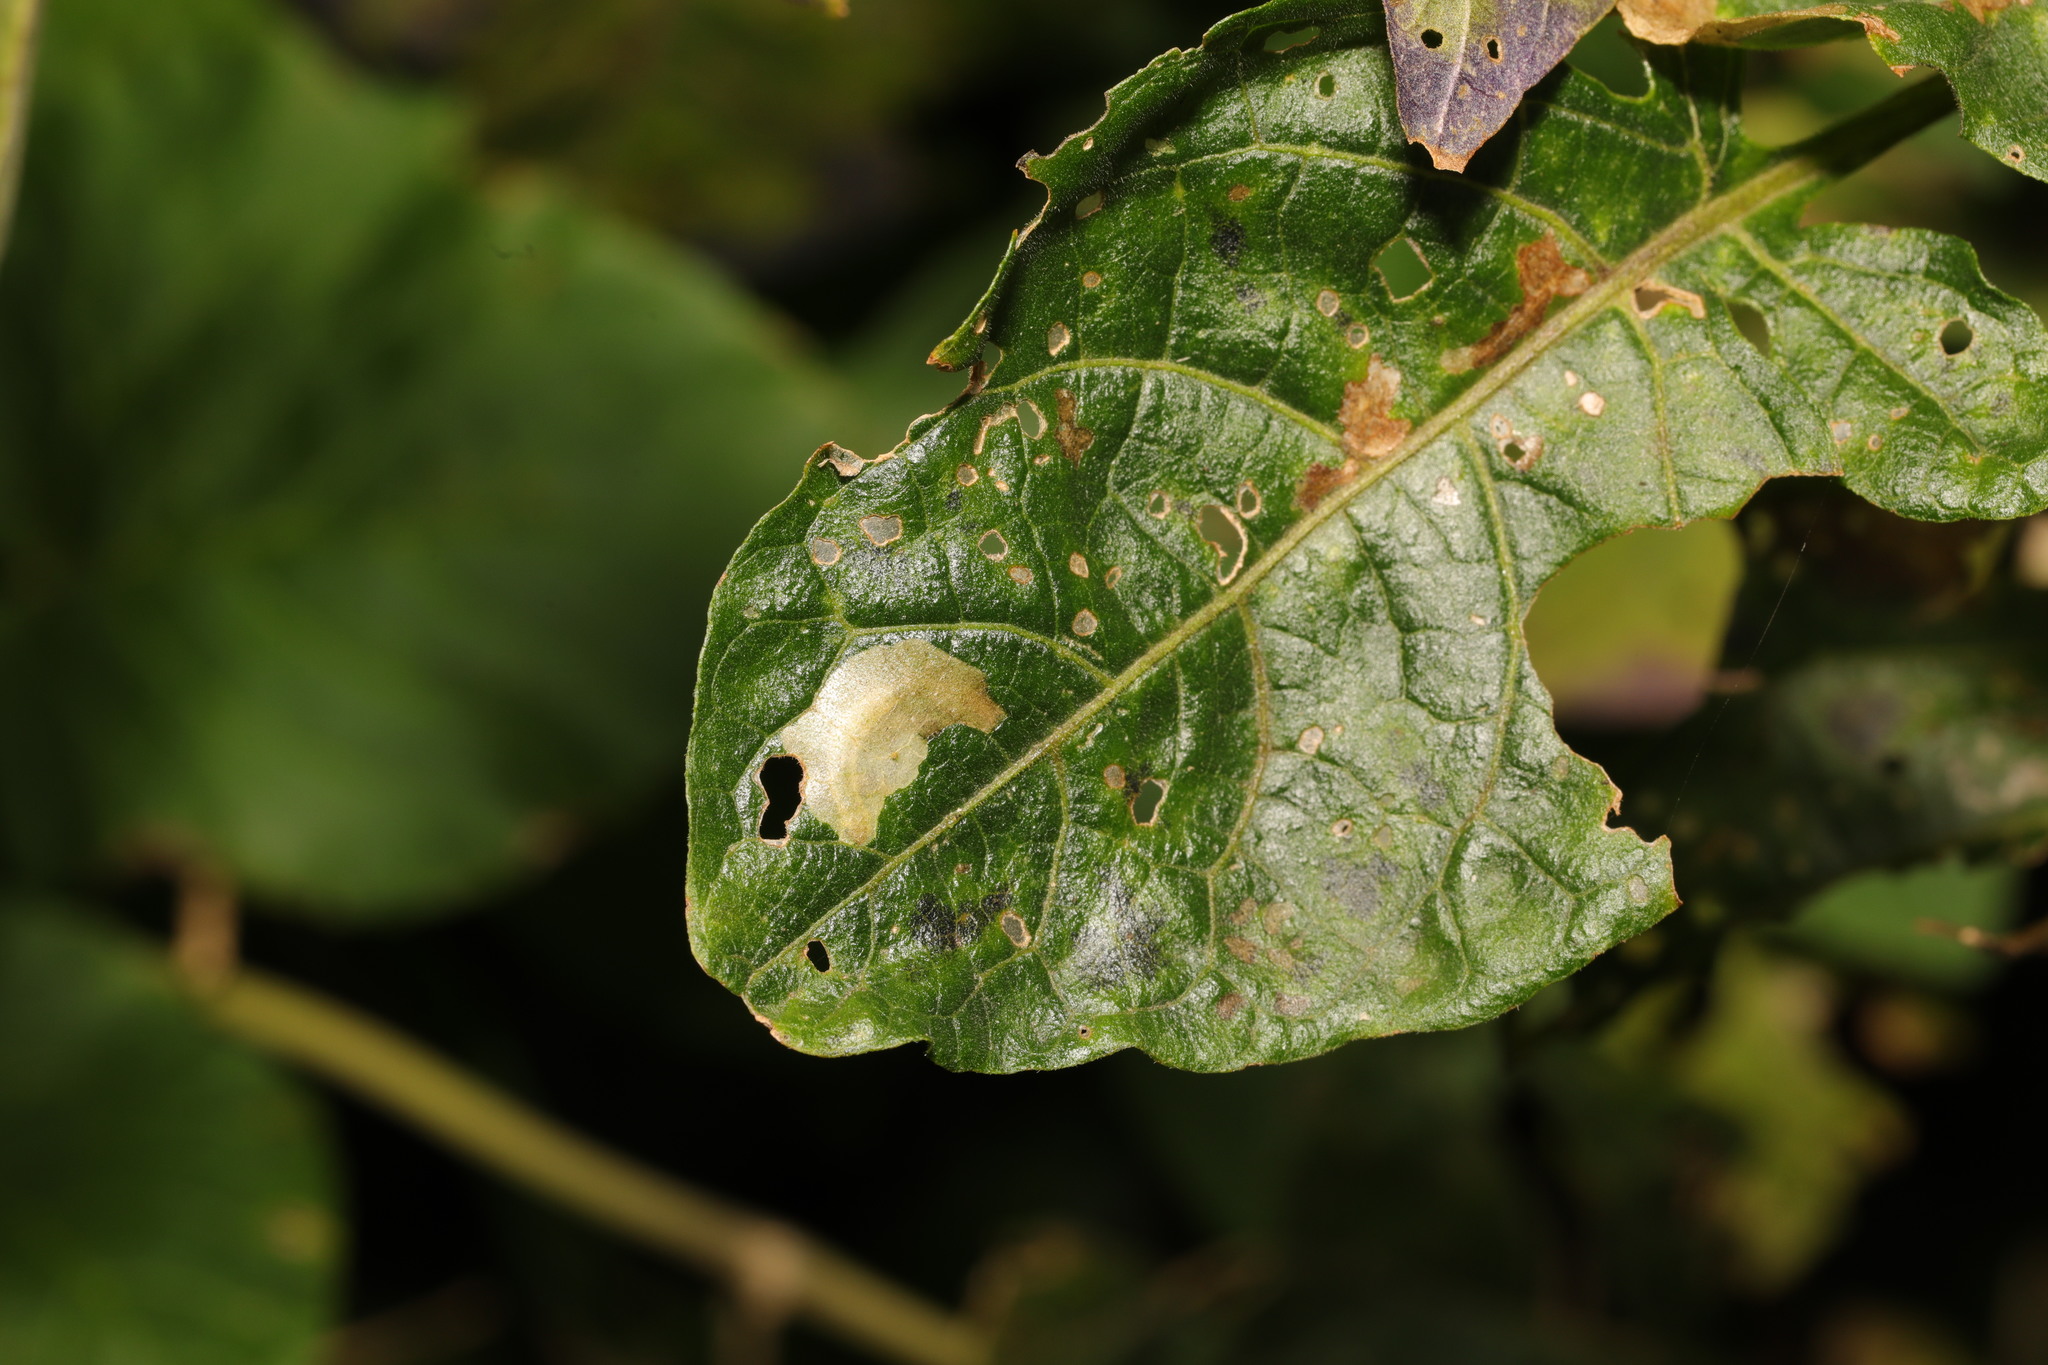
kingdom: Animalia
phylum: Arthropoda
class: Insecta
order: Lepidoptera
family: Glyphipterigidae
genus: Acrolepia
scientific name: Acrolepia pygmaeana
